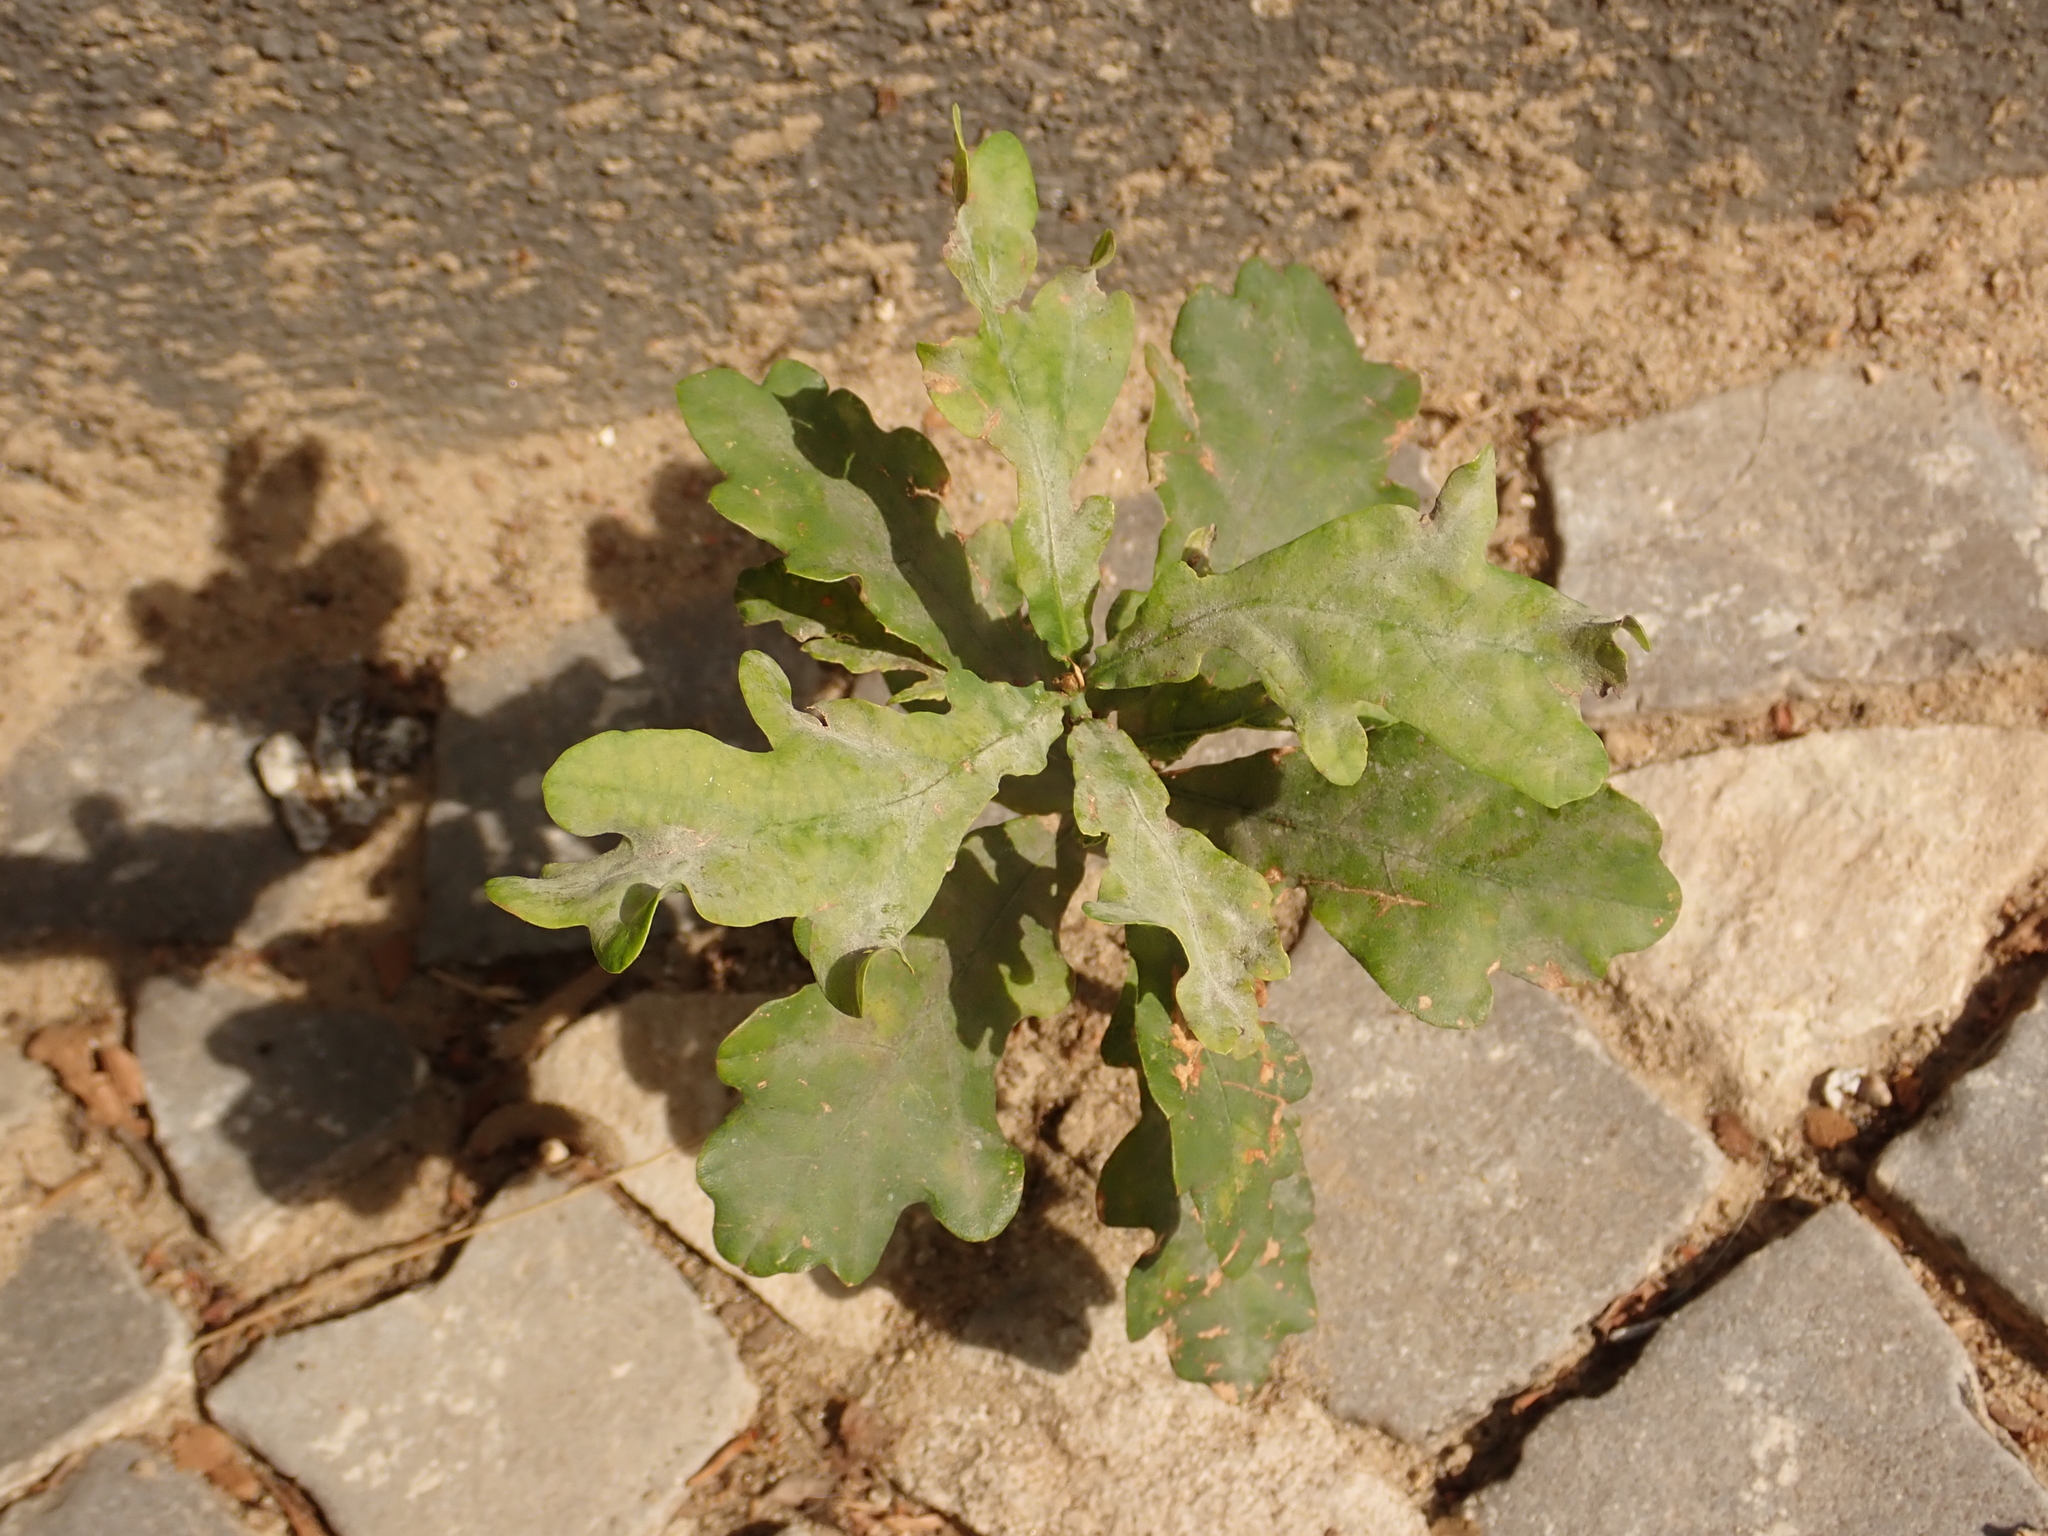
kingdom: Plantae
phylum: Tracheophyta
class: Magnoliopsida
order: Fagales
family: Fagaceae
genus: Quercus
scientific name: Quercus robur
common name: Pedunculate oak
